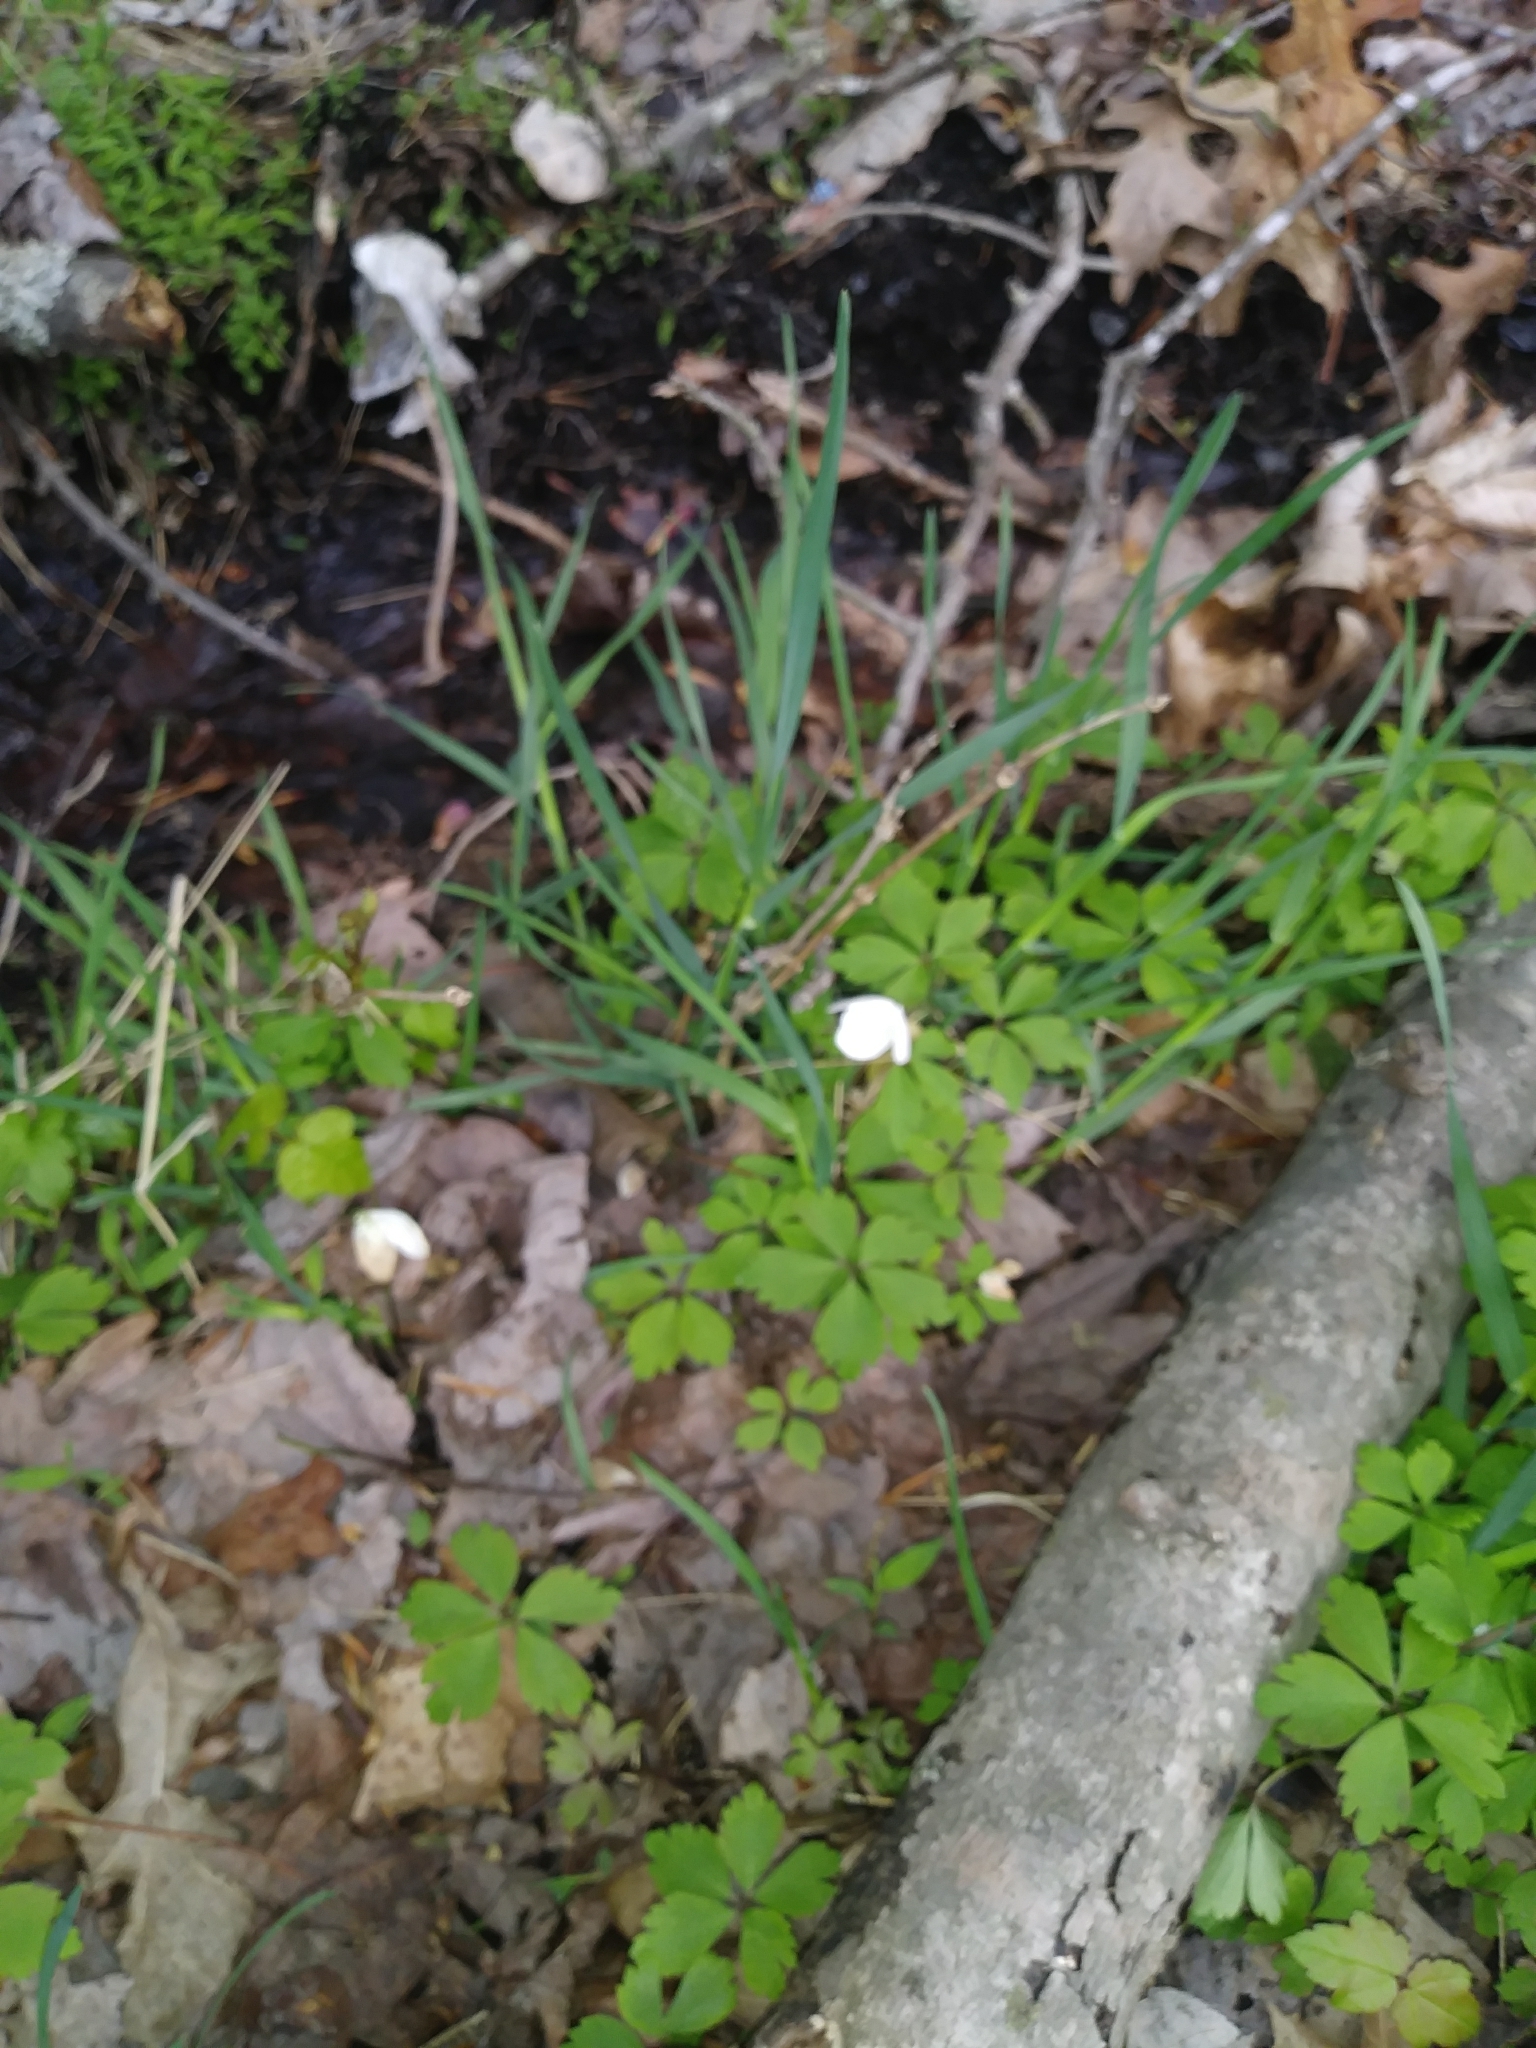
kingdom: Plantae
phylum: Tracheophyta
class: Magnoliopsida
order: Ranunculales
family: Ranunculaceae
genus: Anemone
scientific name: Anemone quinquefolia
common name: Wood anemone
